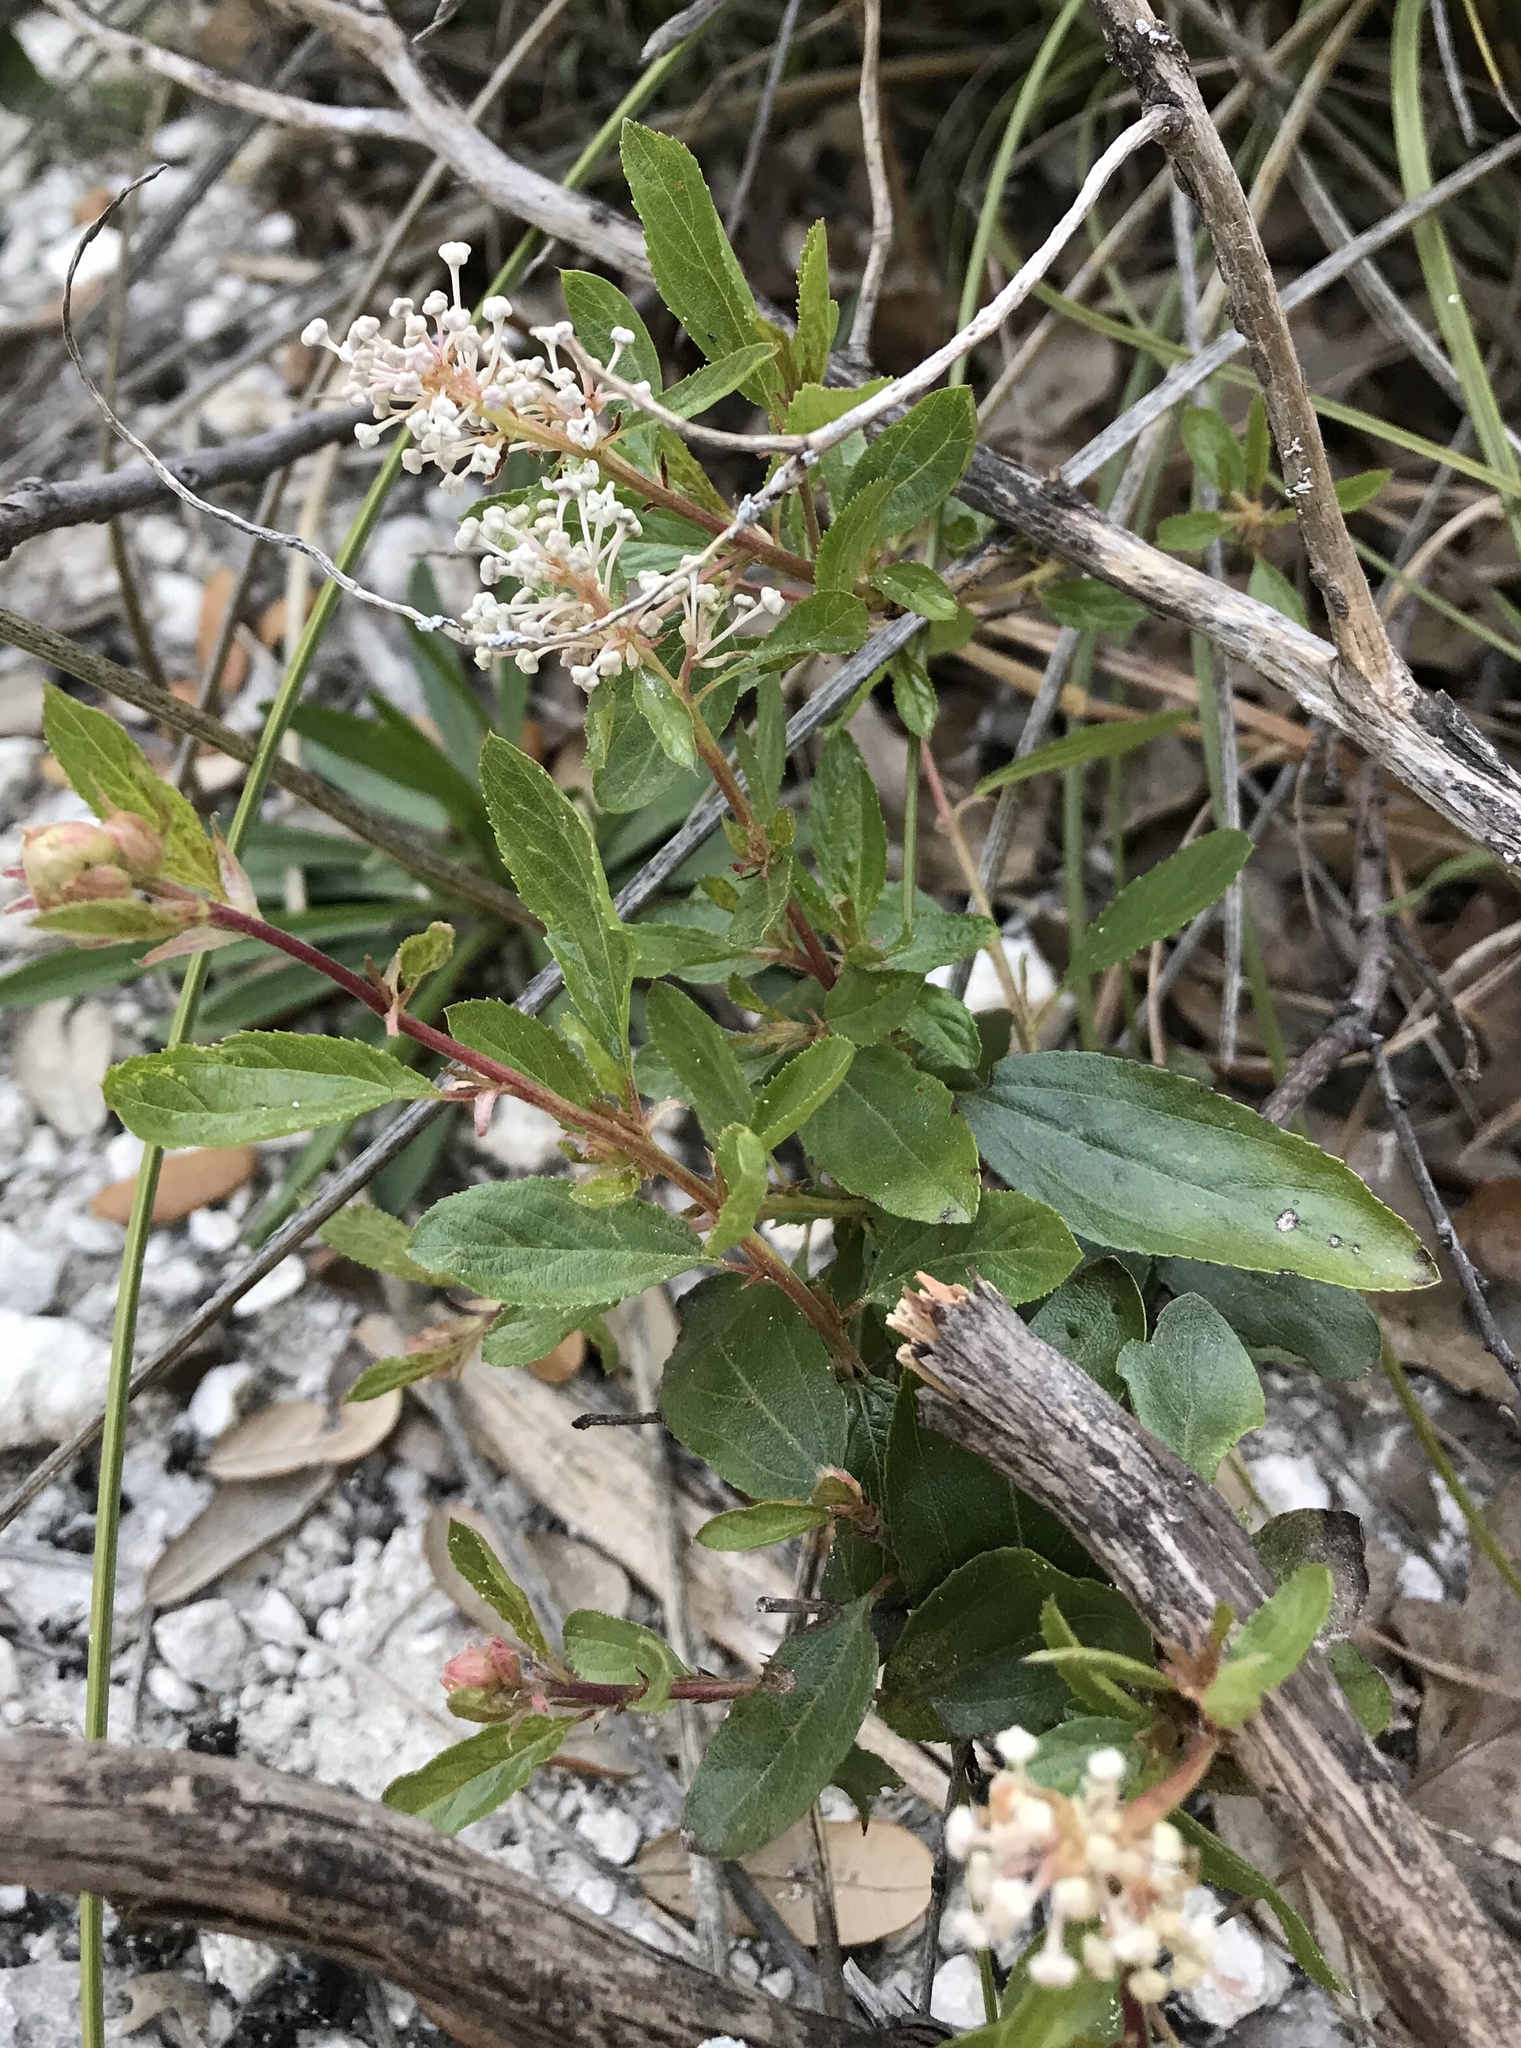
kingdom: Plantae
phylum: Tracheophyta
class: Magnoliopsida
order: Rosales
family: Rhamnaceae
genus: Ceanothus
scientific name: Ceanothus herbaceus
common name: Inland ceanothus
